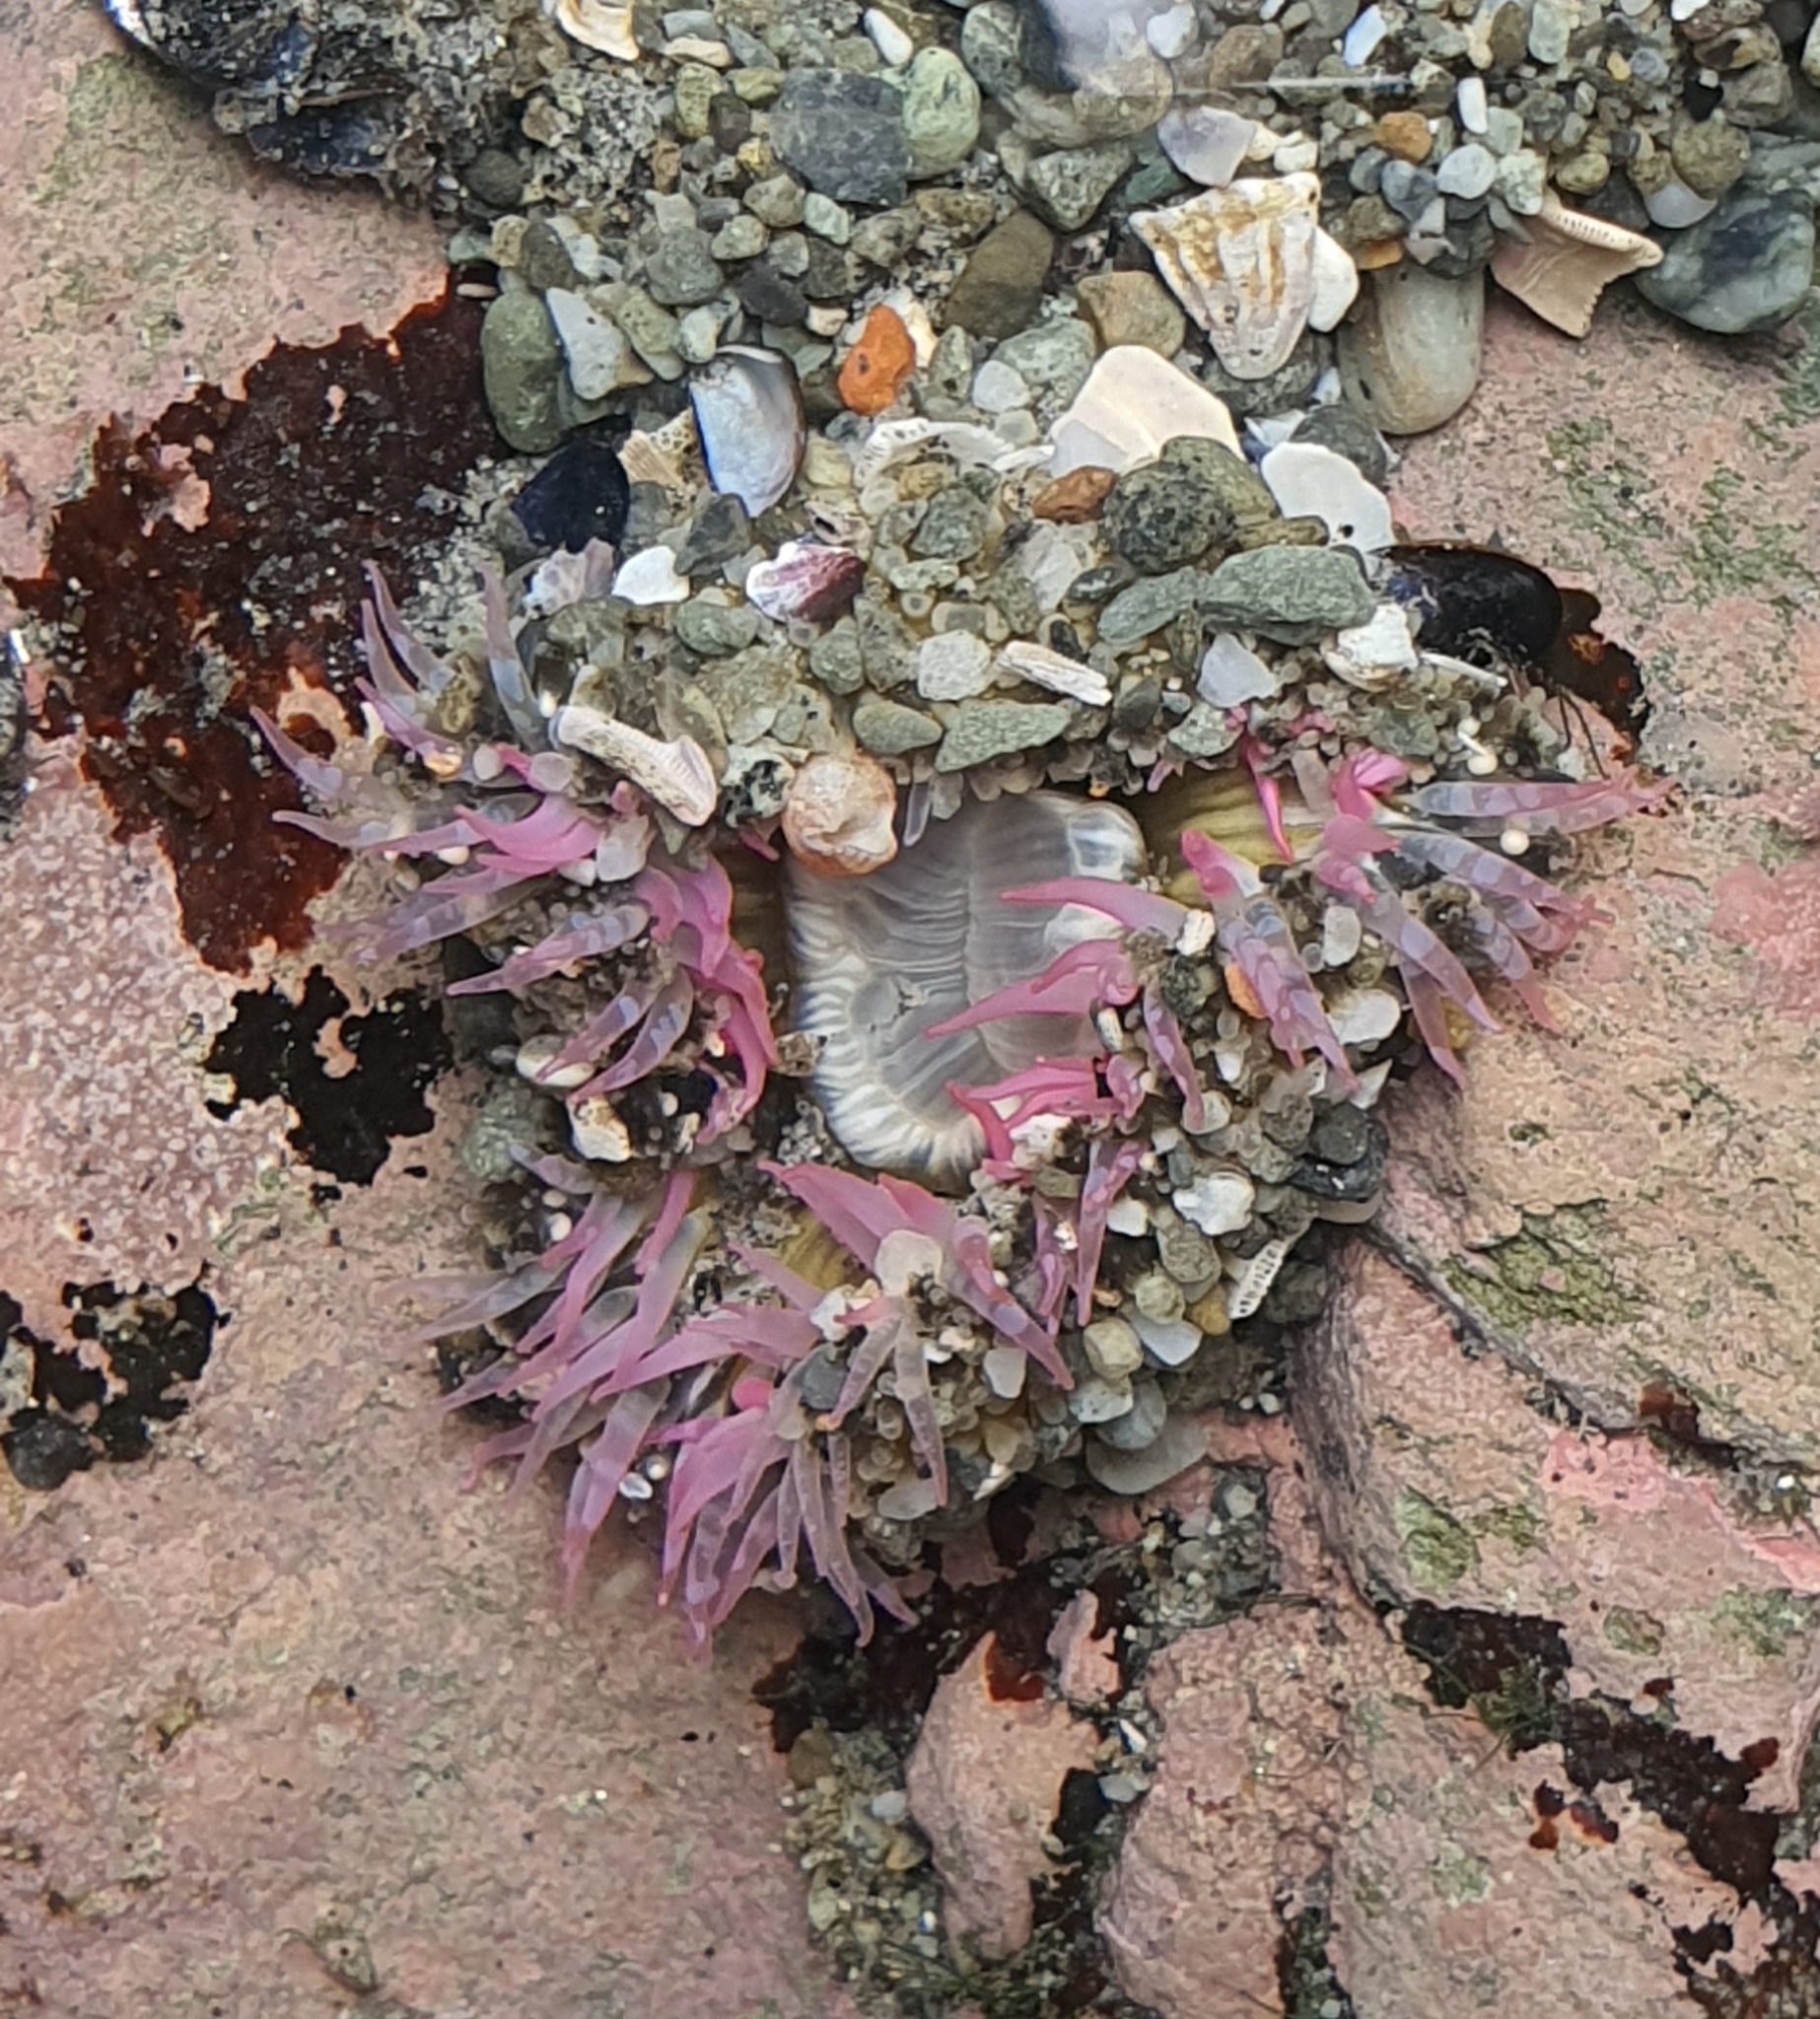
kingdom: Animalia
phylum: Cnidaria
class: Anthozoa
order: Actiniaria
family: Actiniidae
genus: Oulactis
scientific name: Oulactis muscosa
